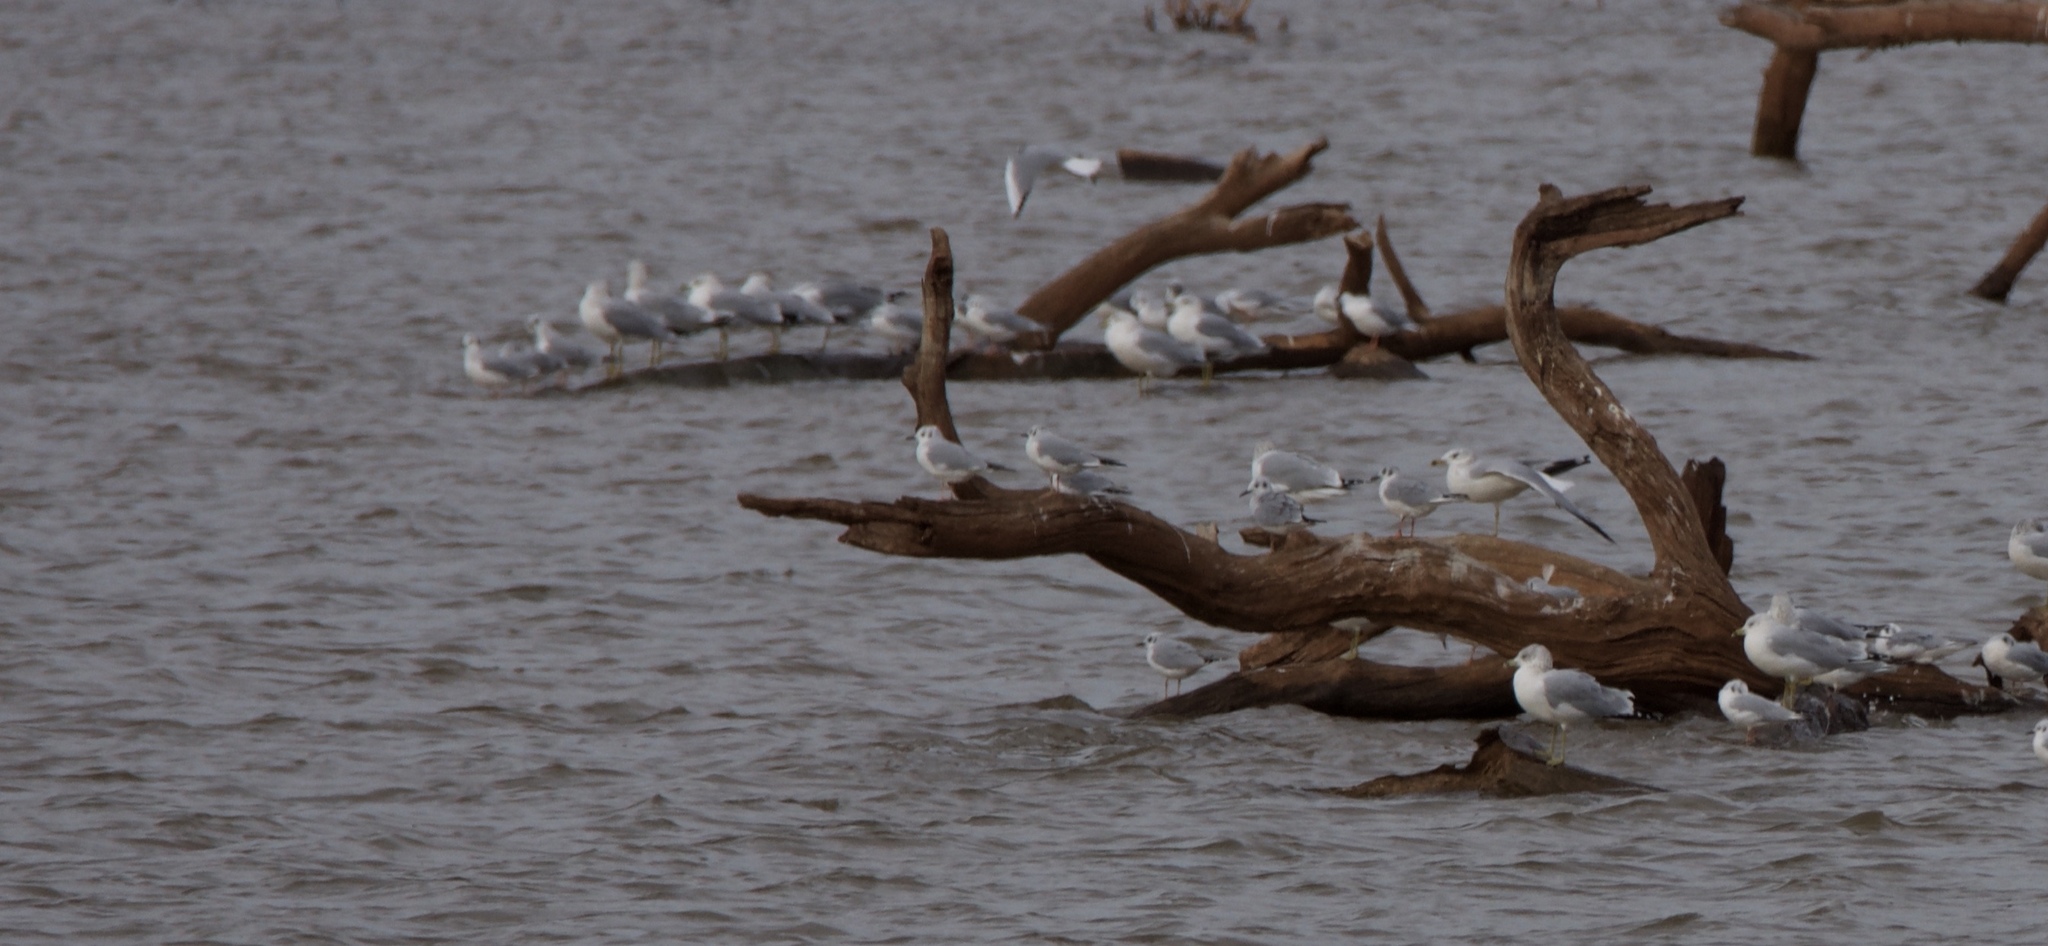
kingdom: Animalia
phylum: Chordata
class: Aves
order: Charadriiformes
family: Laridae
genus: Chroicocephalus
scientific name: Chroicocephalus philadelphia
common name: Bonaparte's gull
